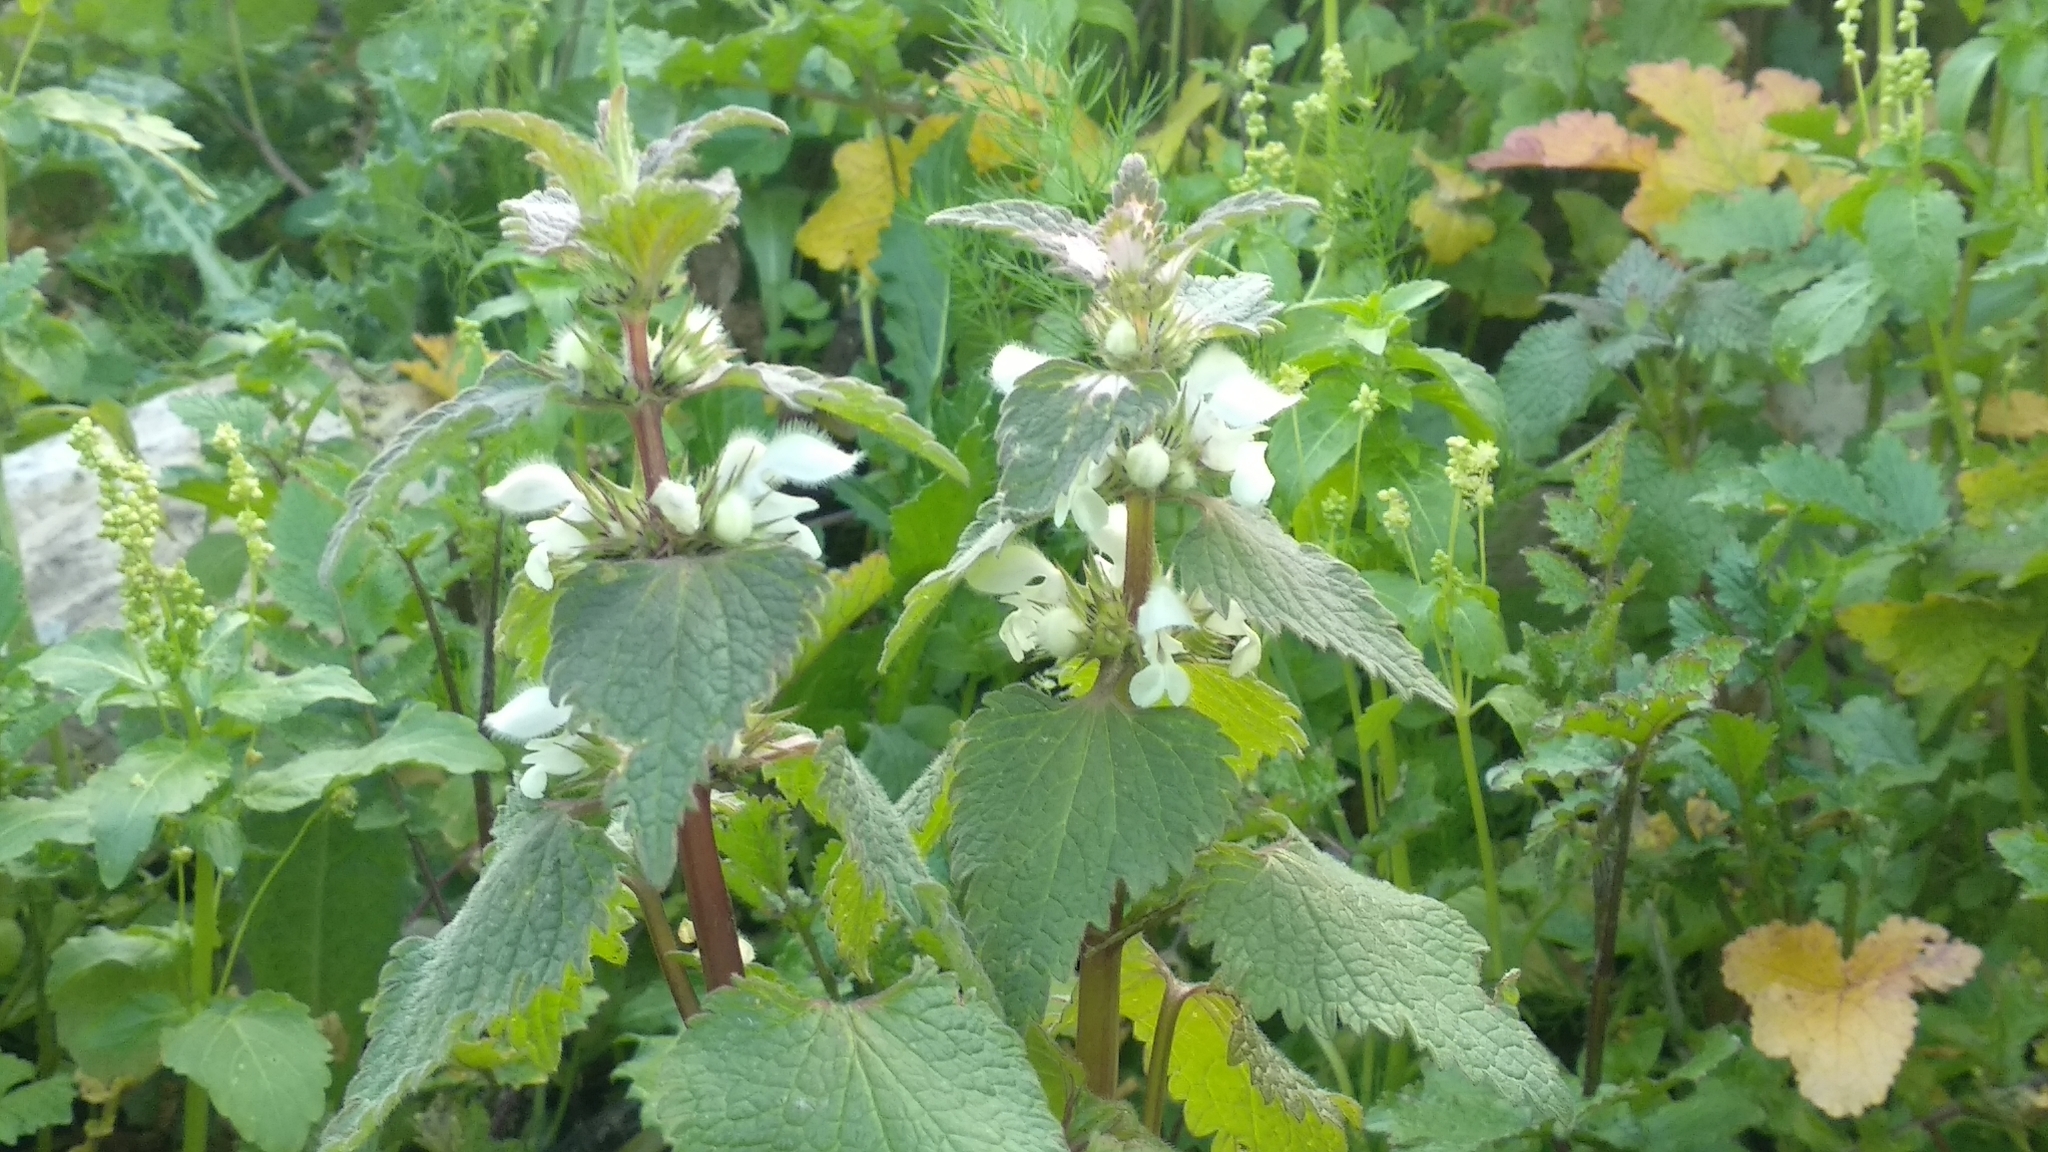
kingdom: Plantae
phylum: Tracheophyta
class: Magnoliopsida
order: Lamiales
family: Lamiaceae
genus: Lamium
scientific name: Lamium moschatum
